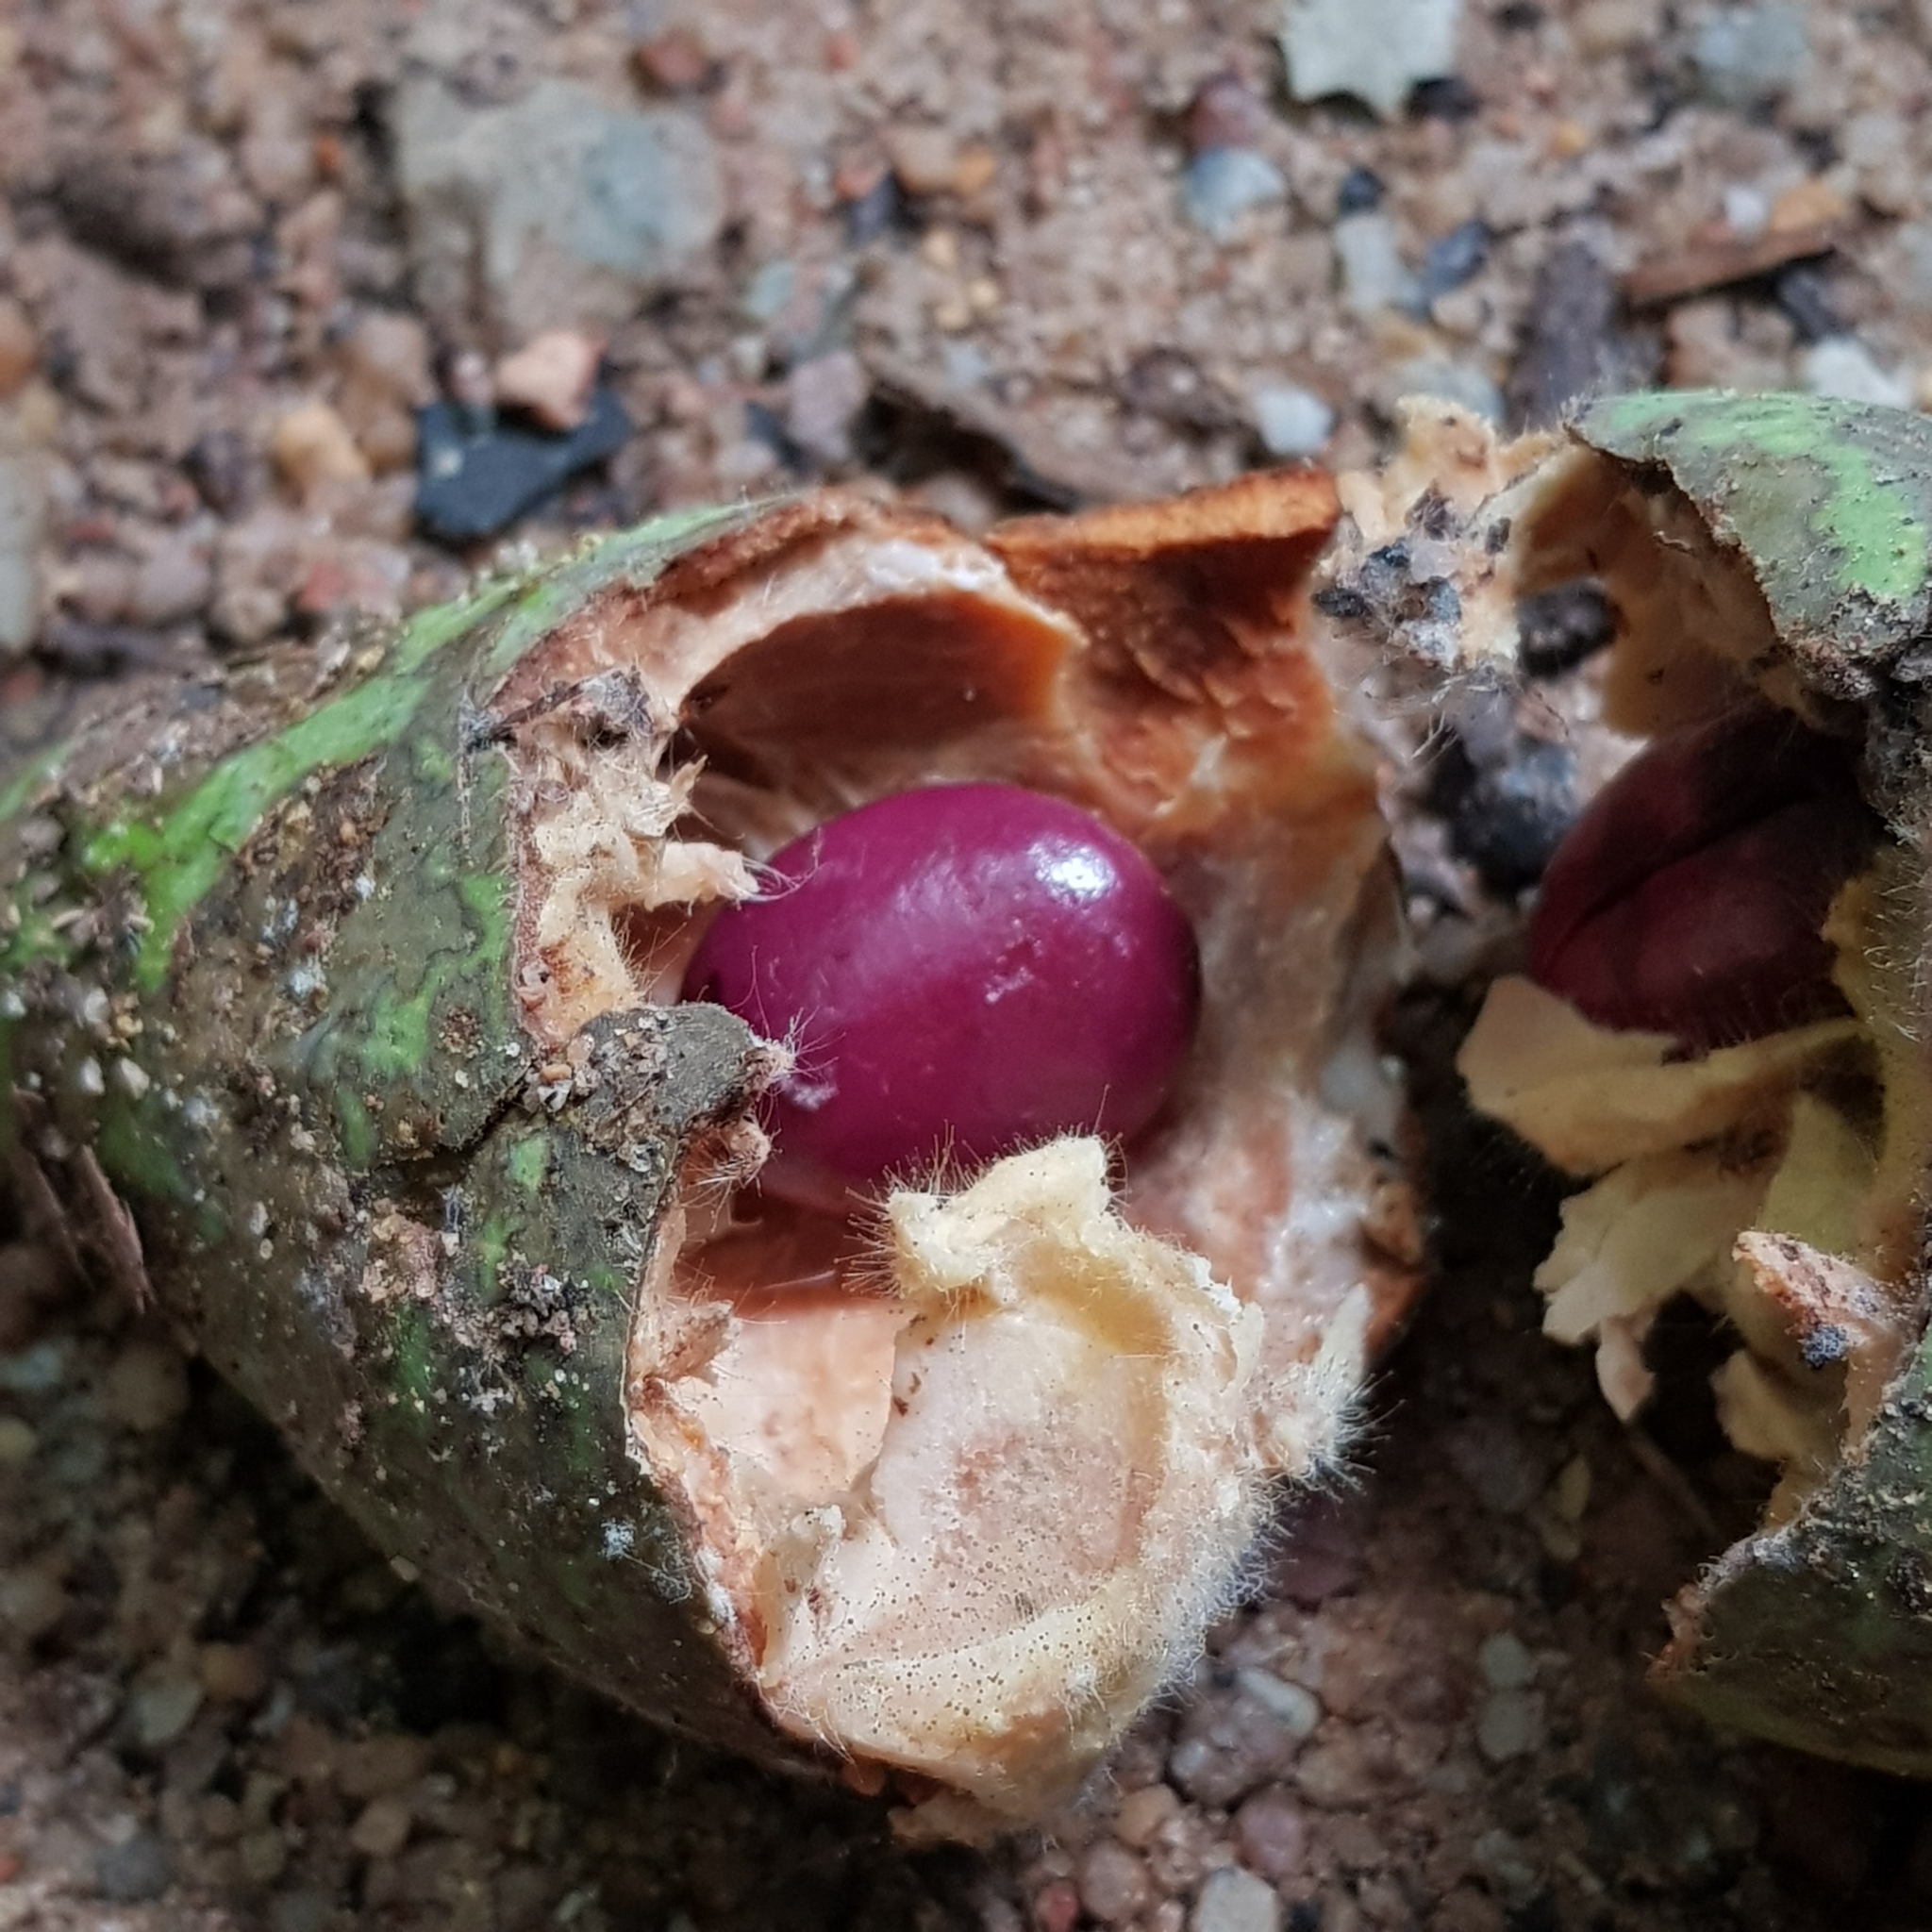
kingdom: Plantae
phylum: Tracheophyta
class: Magnoliopsida
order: Gentianales
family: Apocynaceae
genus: Willughbeia
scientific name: Willughbeia coriacea
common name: Borneo-rubber
